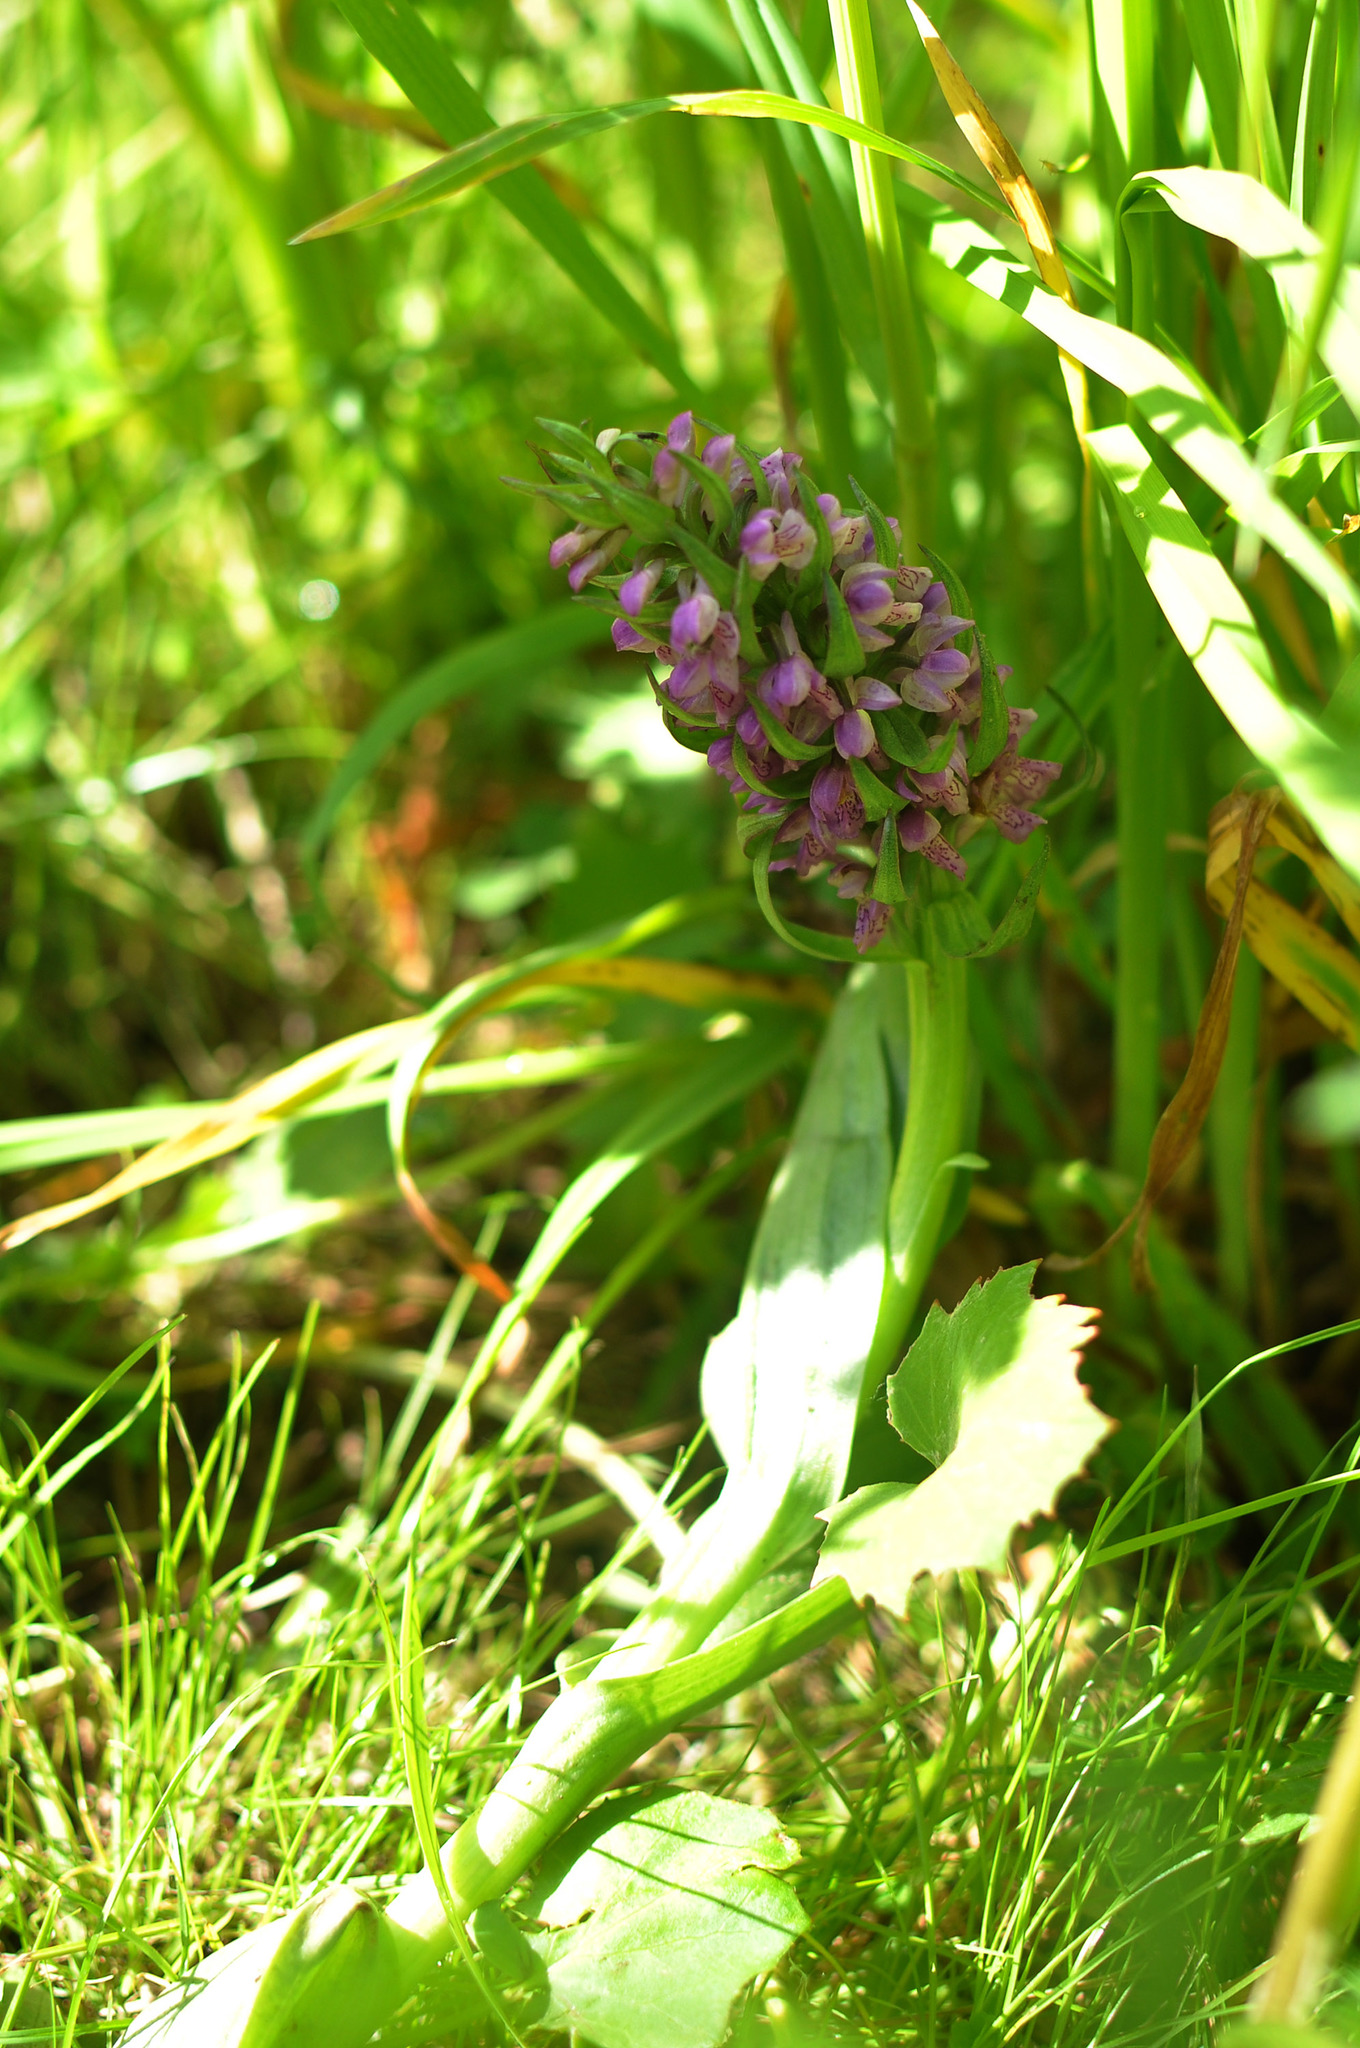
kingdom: Plantae
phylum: Tracheophyta
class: Liliopsida
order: Asparagales
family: Orchidaceae
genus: Dactylorhiza
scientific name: Dactylorhiza incarnata
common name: Early marsh-orchid
